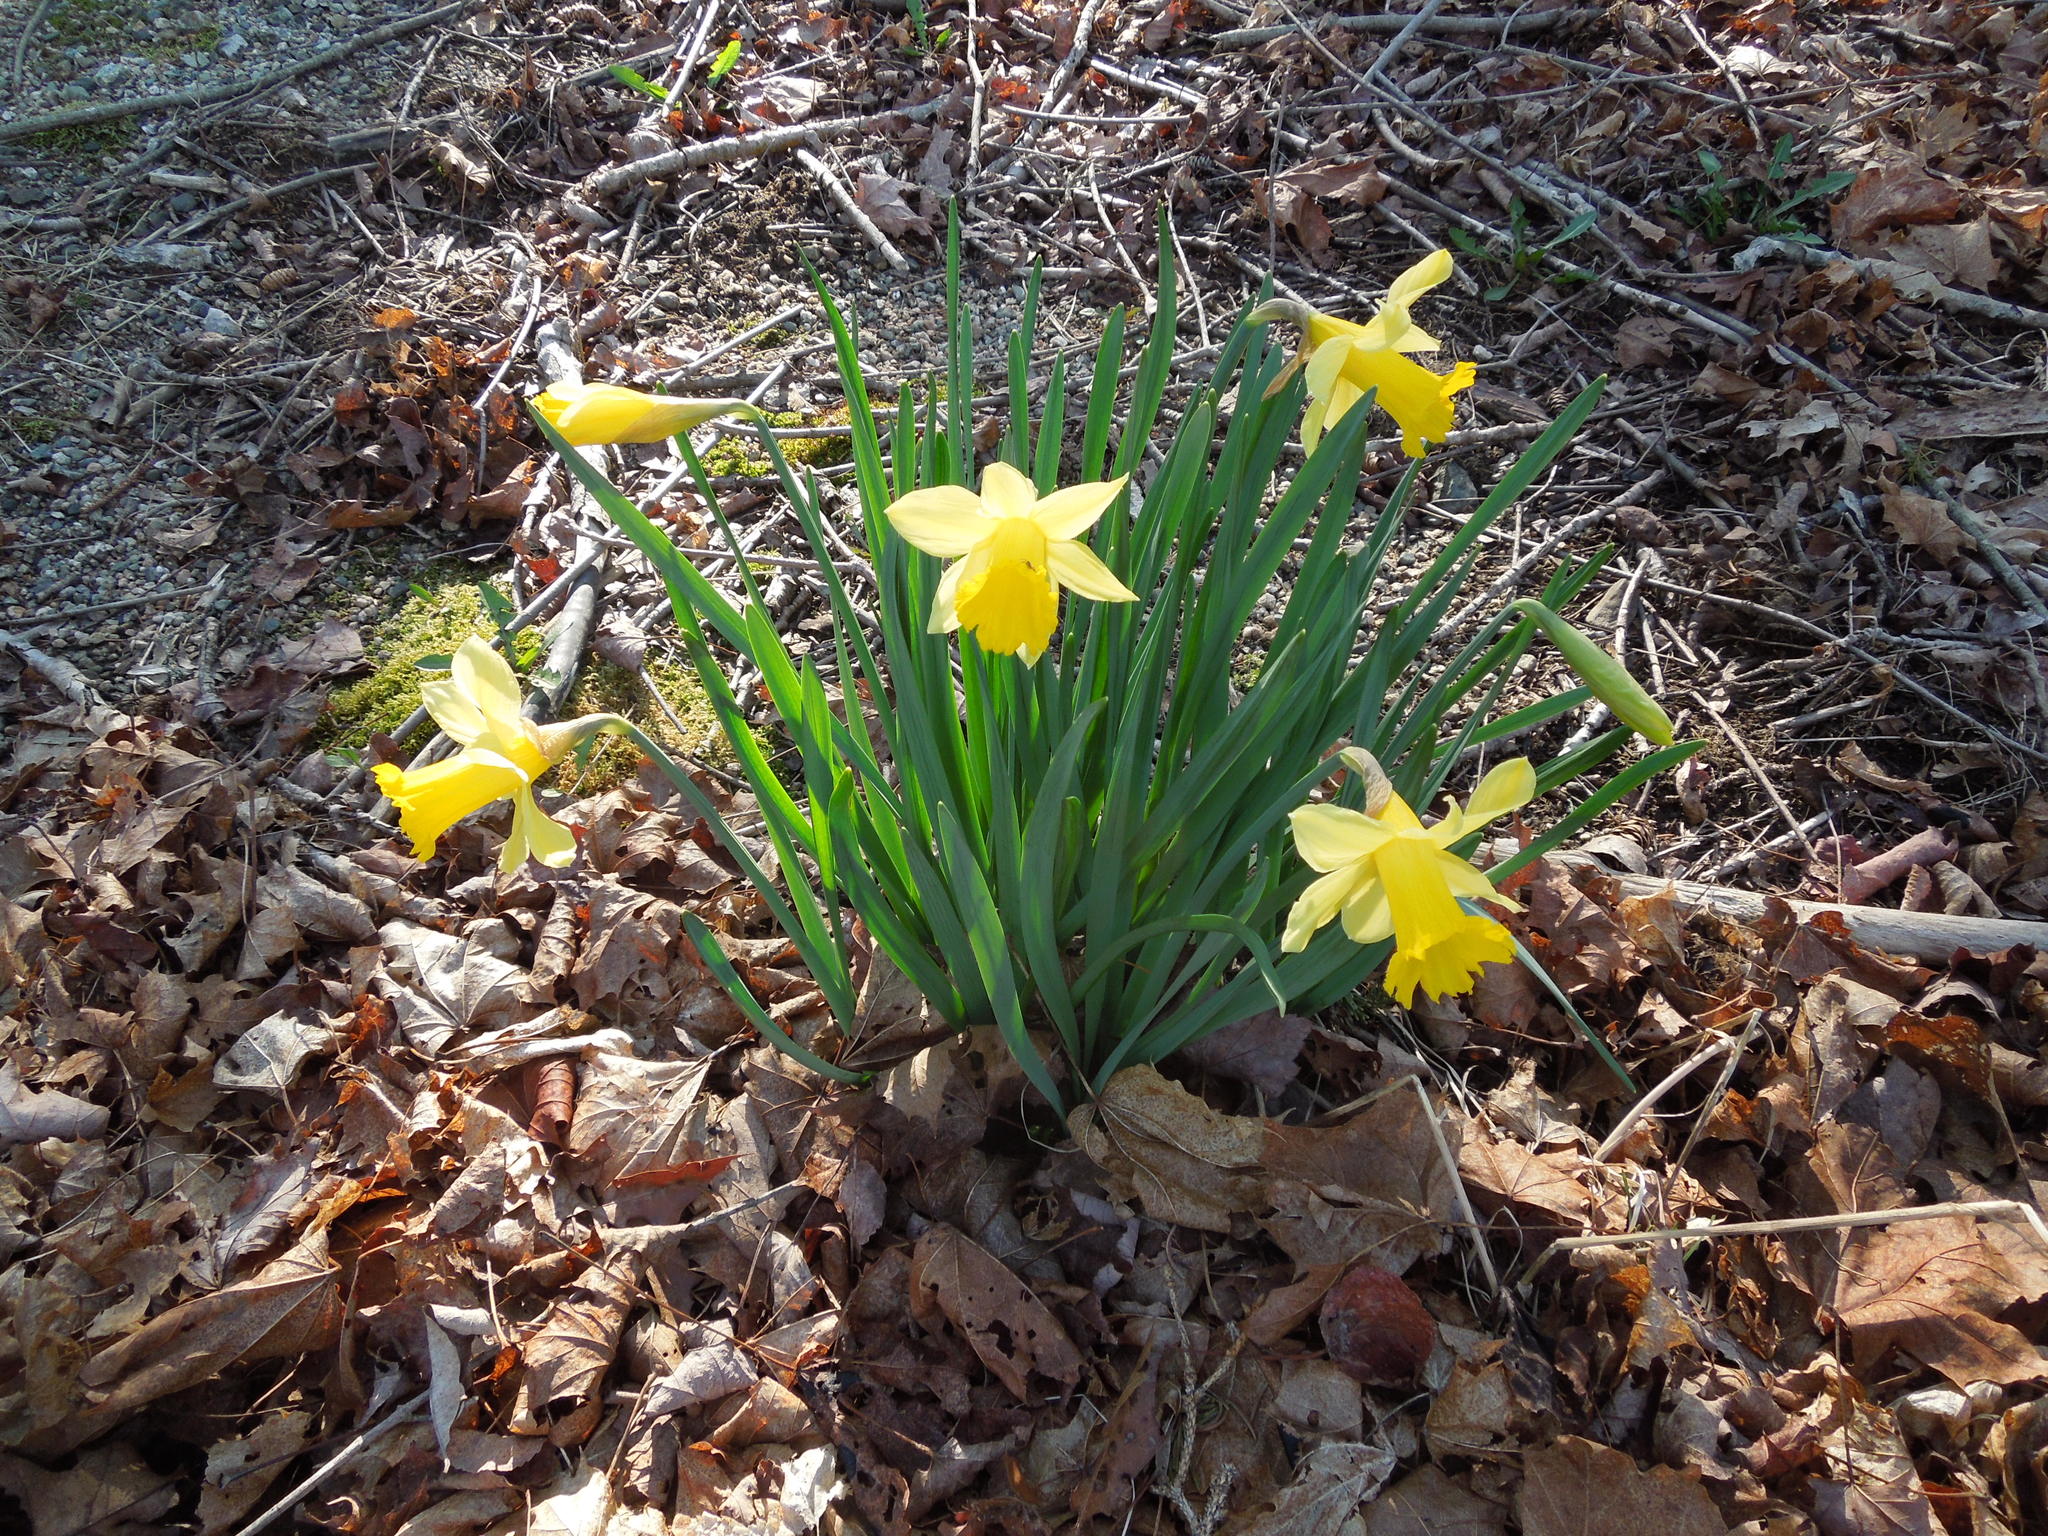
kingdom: Plantae
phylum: Tracheophyta
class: Liliopsida
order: Asparagales
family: Amaryllidaceae
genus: Narcissus
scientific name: Narcissus pseudonarcissus
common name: Daffodil
